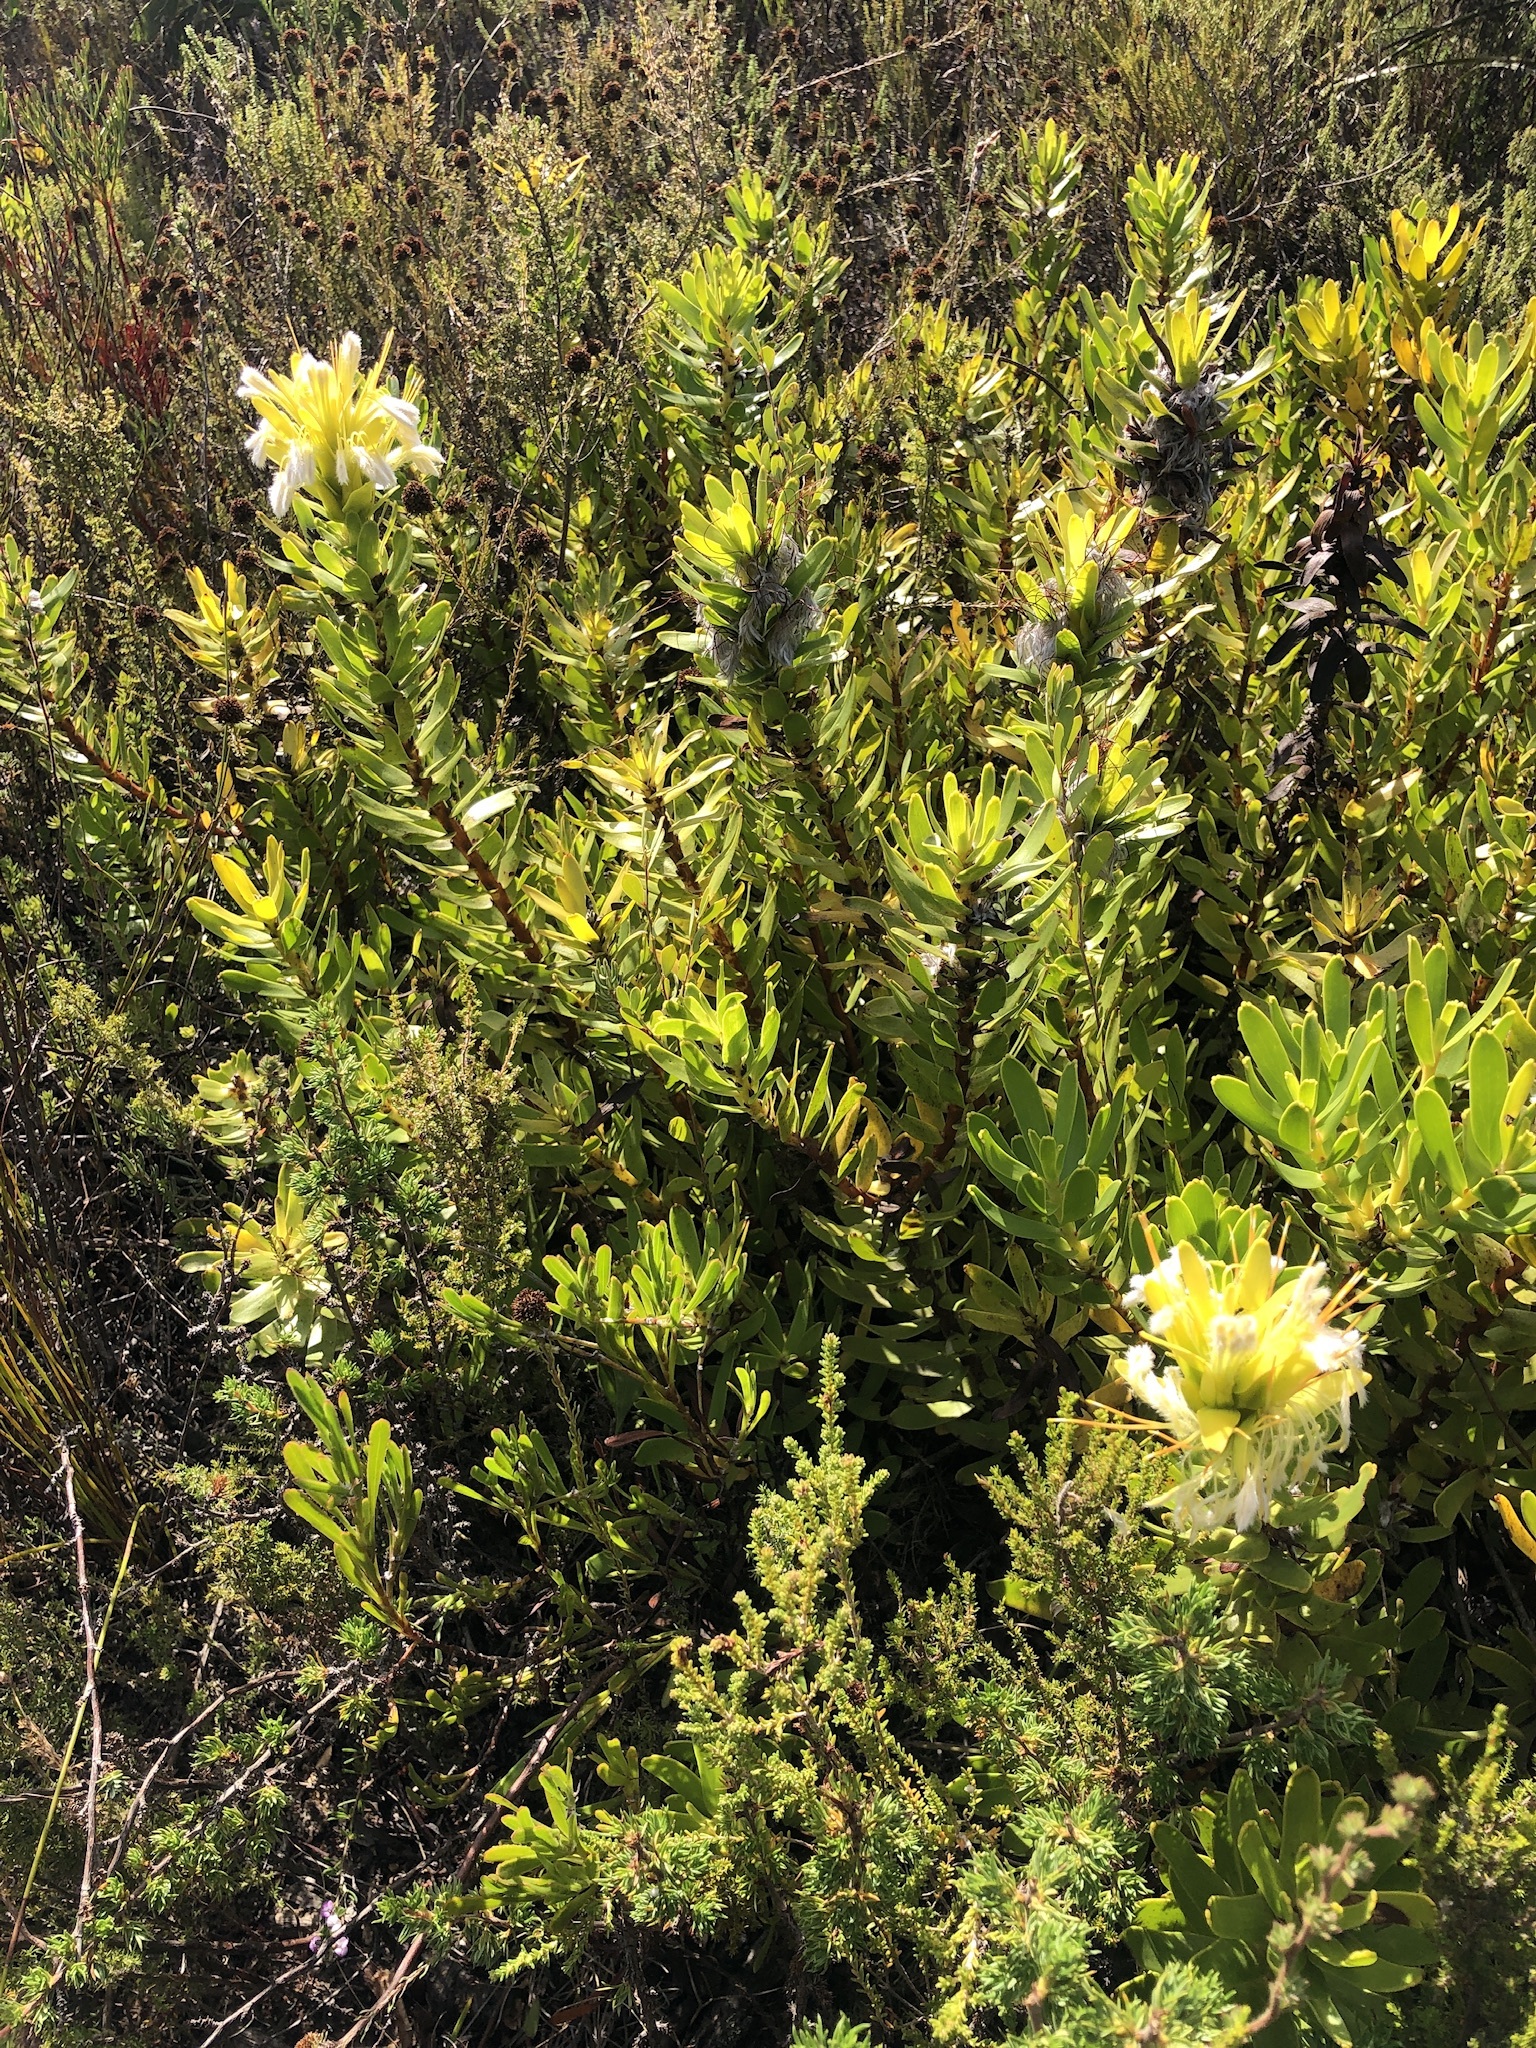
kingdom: Plantae
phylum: Tracheophyta
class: Magnoliopsida
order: Proteales
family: Proteaceae
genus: Mimetes
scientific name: Mimetes cucullatus
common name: Common pagoda
